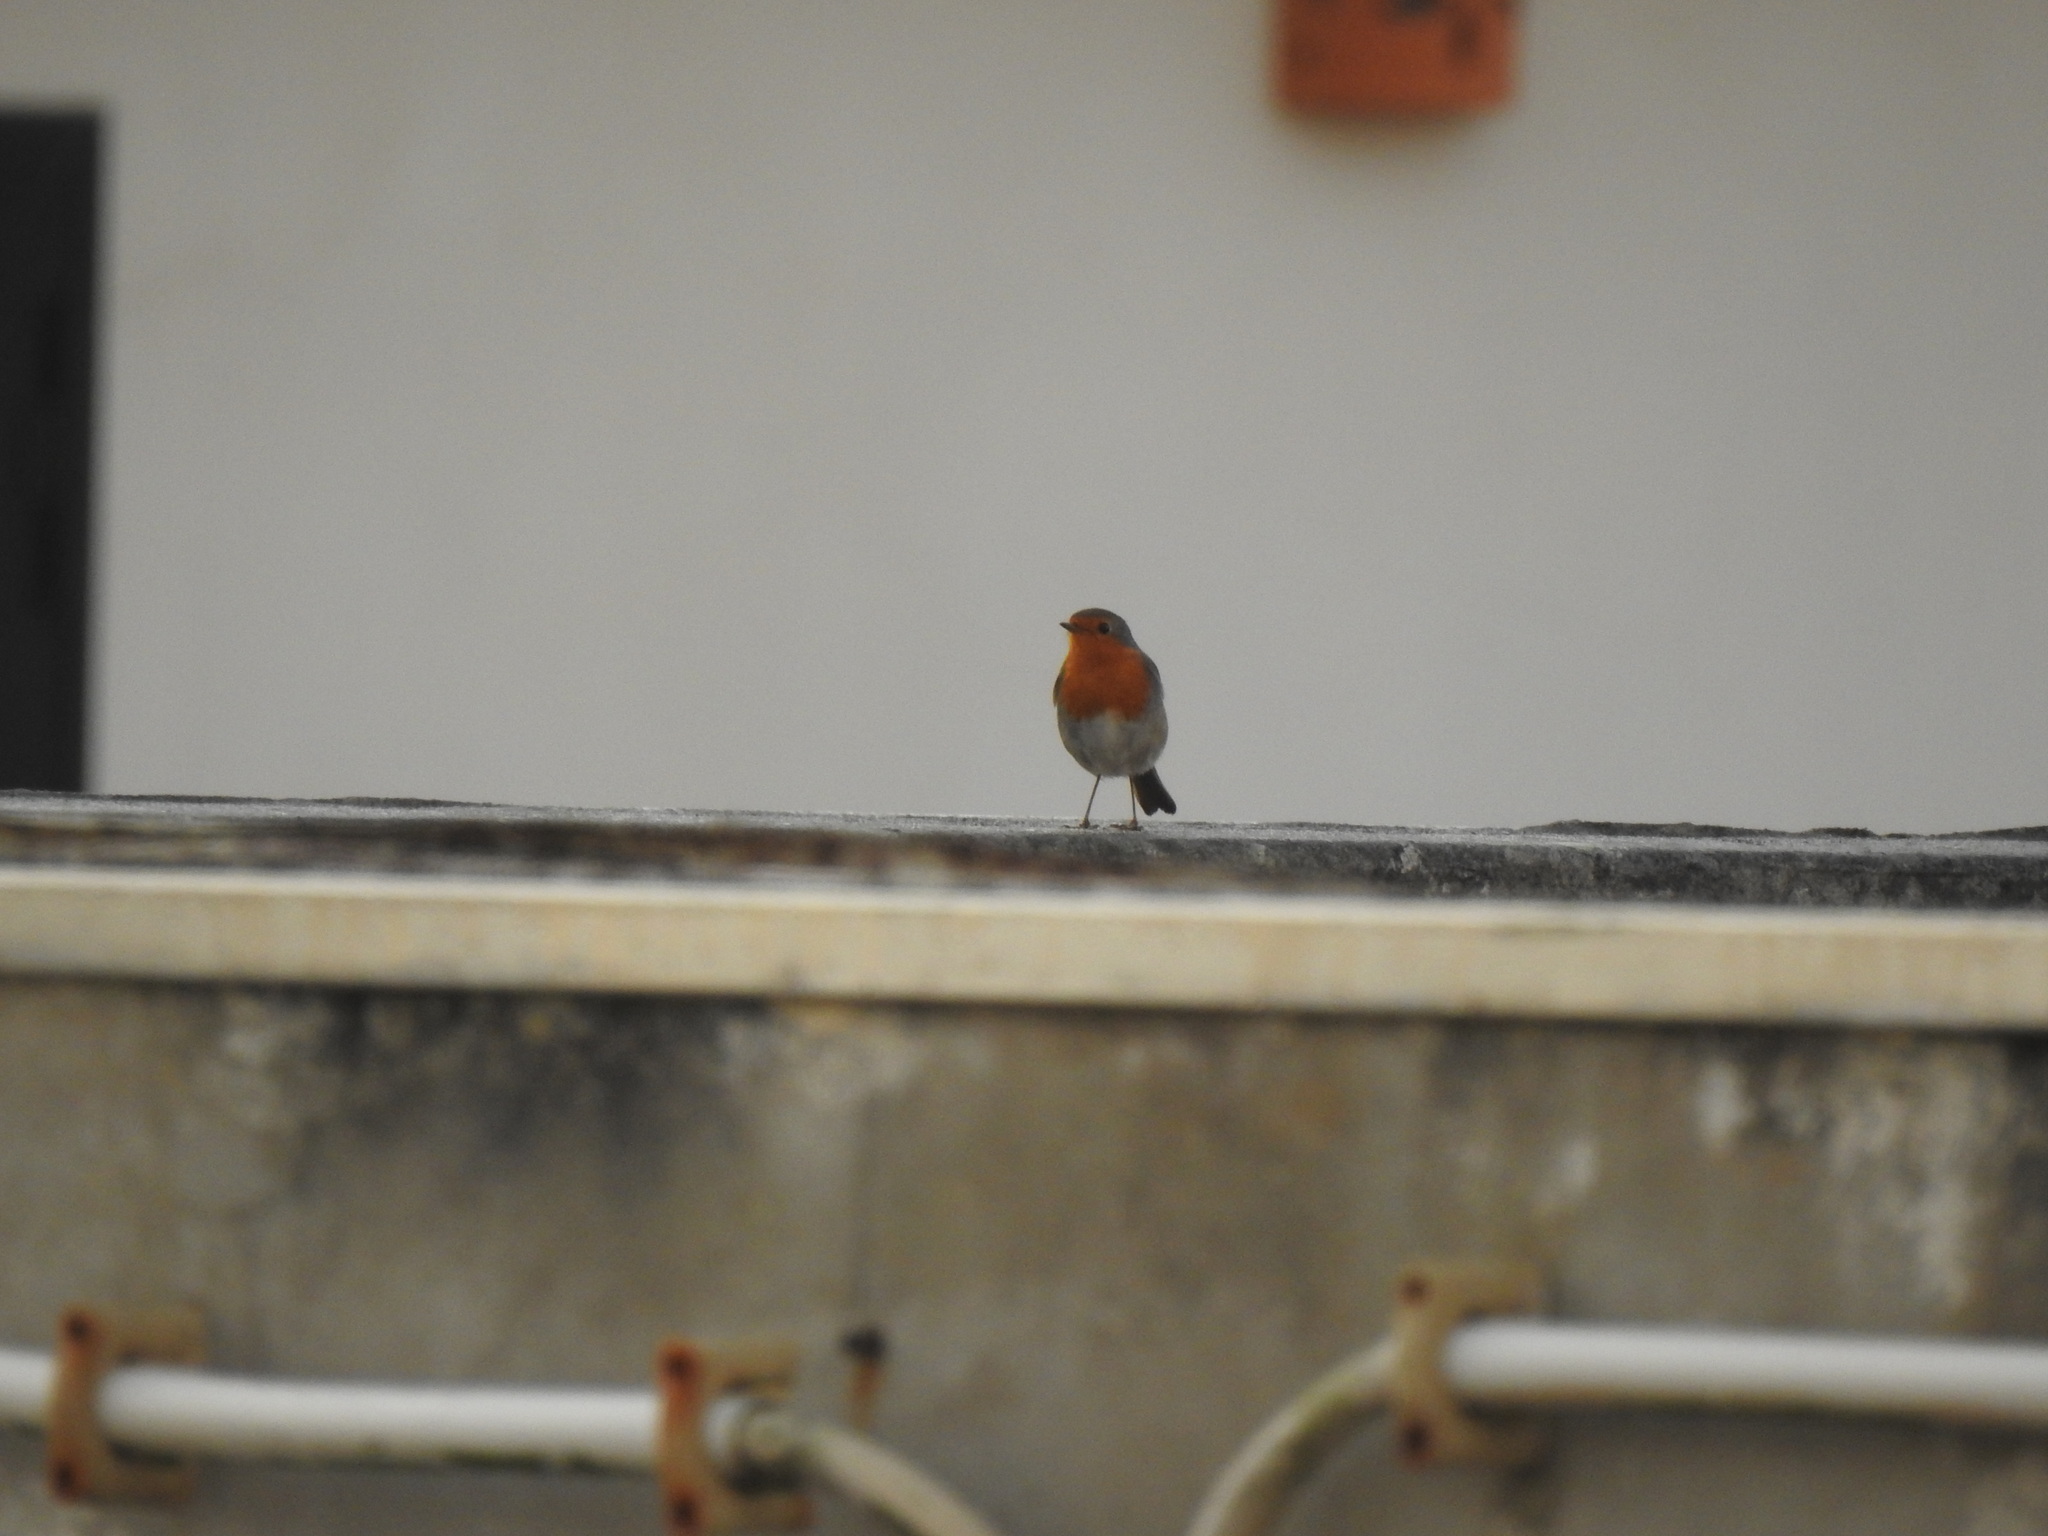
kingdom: Animalia
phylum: Chordata
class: Aves
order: Passeriformes
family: Muscicapidae
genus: Erithacus
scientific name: Erithacus rubecula
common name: European robin
